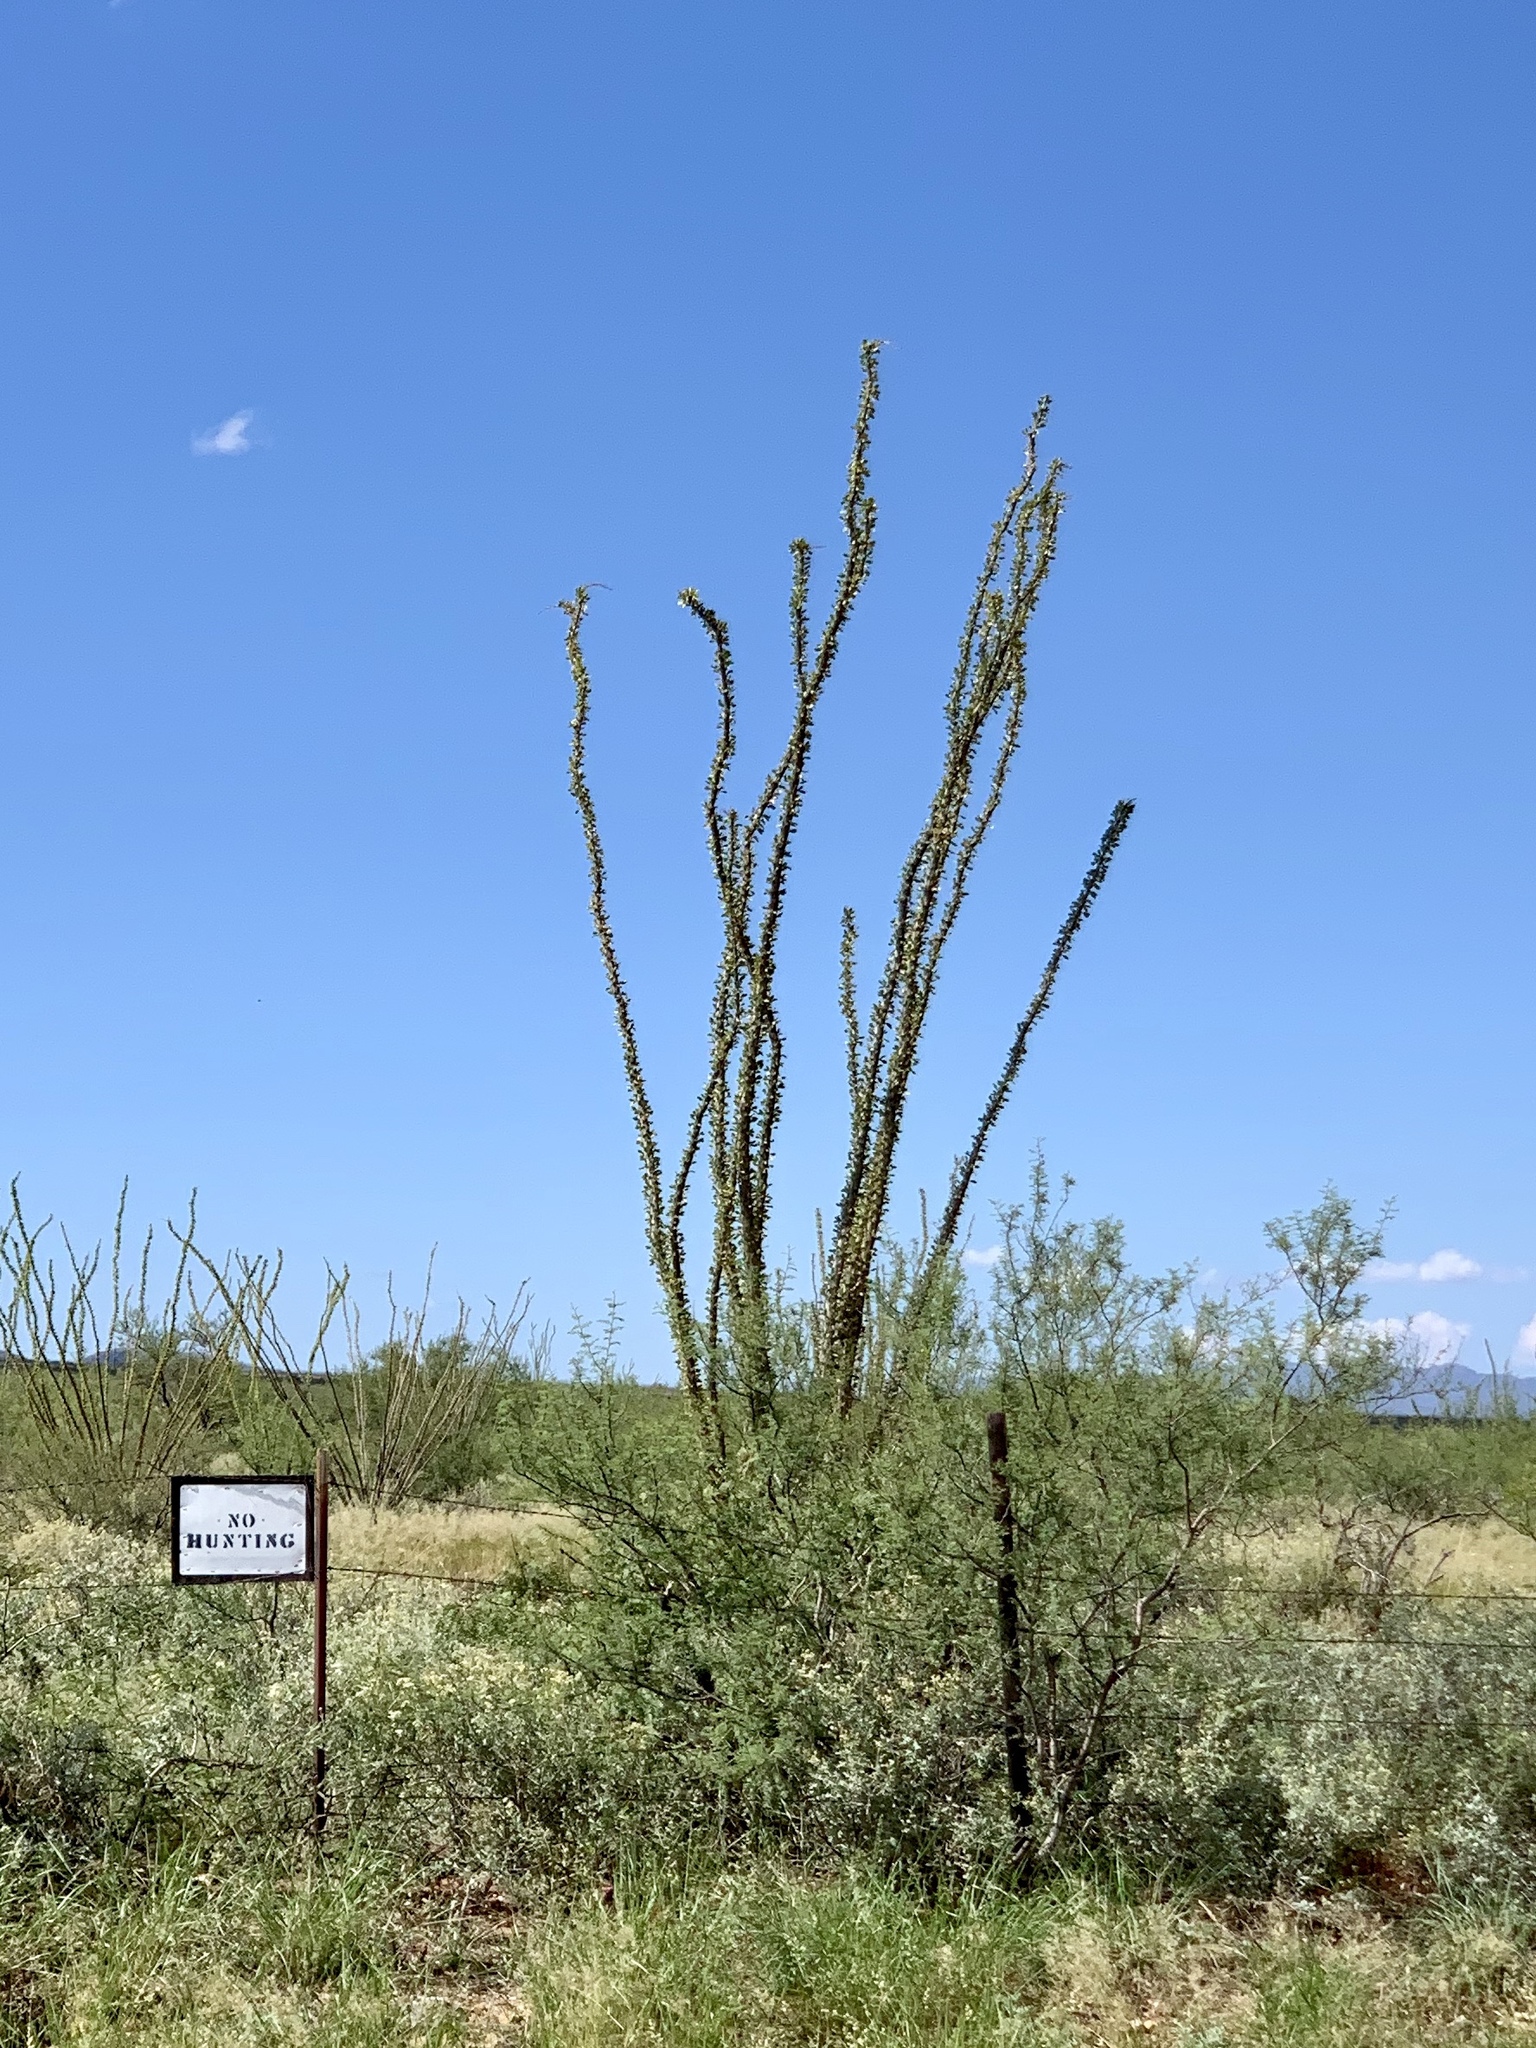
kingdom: Plantae
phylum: Tracheophyta
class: Magnoliopsida
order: Ericales
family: Fouquieriaceae
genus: Fouquieria
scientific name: Fouquieria splendens
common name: Vine-cactus
